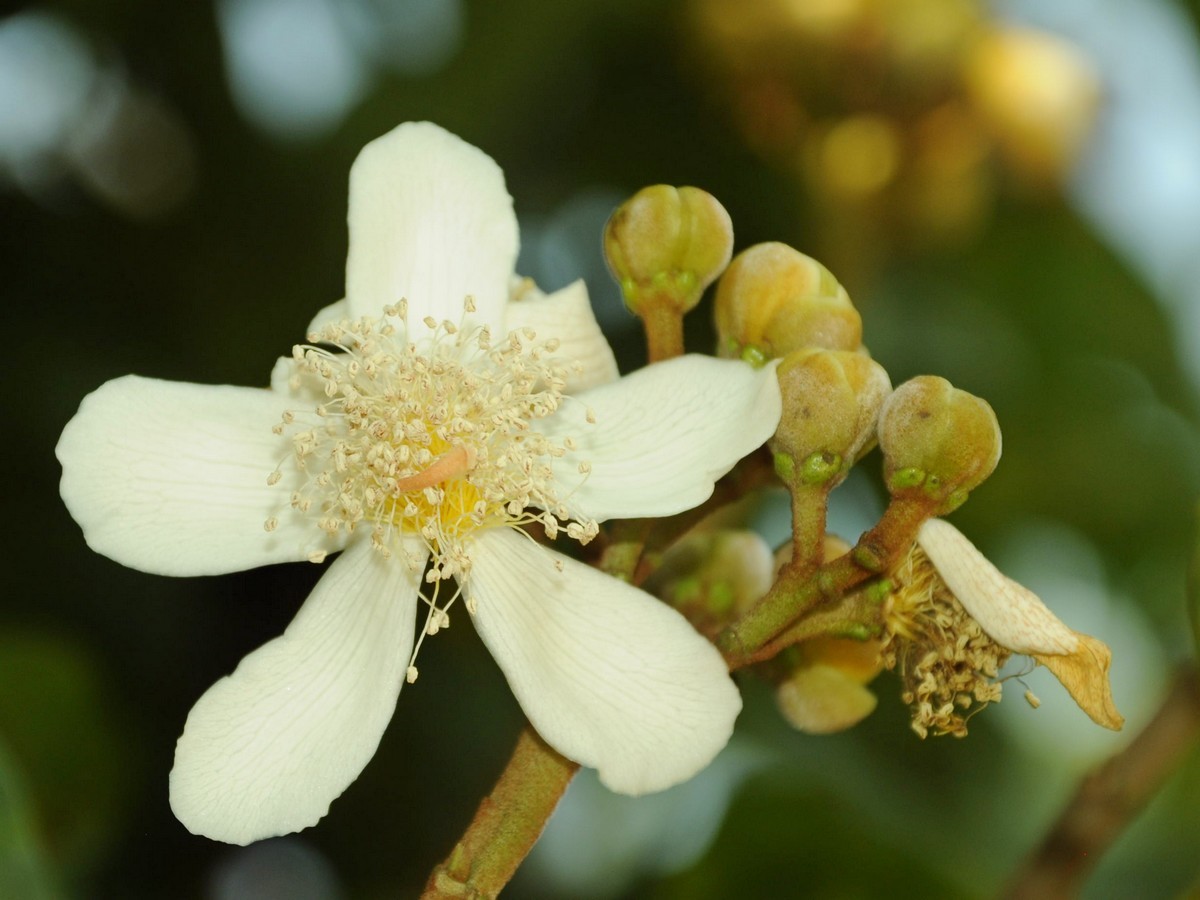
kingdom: Plantae
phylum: Tracheophyta
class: Magnoliopsida
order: Malvales
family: Bixaceae
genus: Bixa
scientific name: Bixa orellana
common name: Lipsticktree
